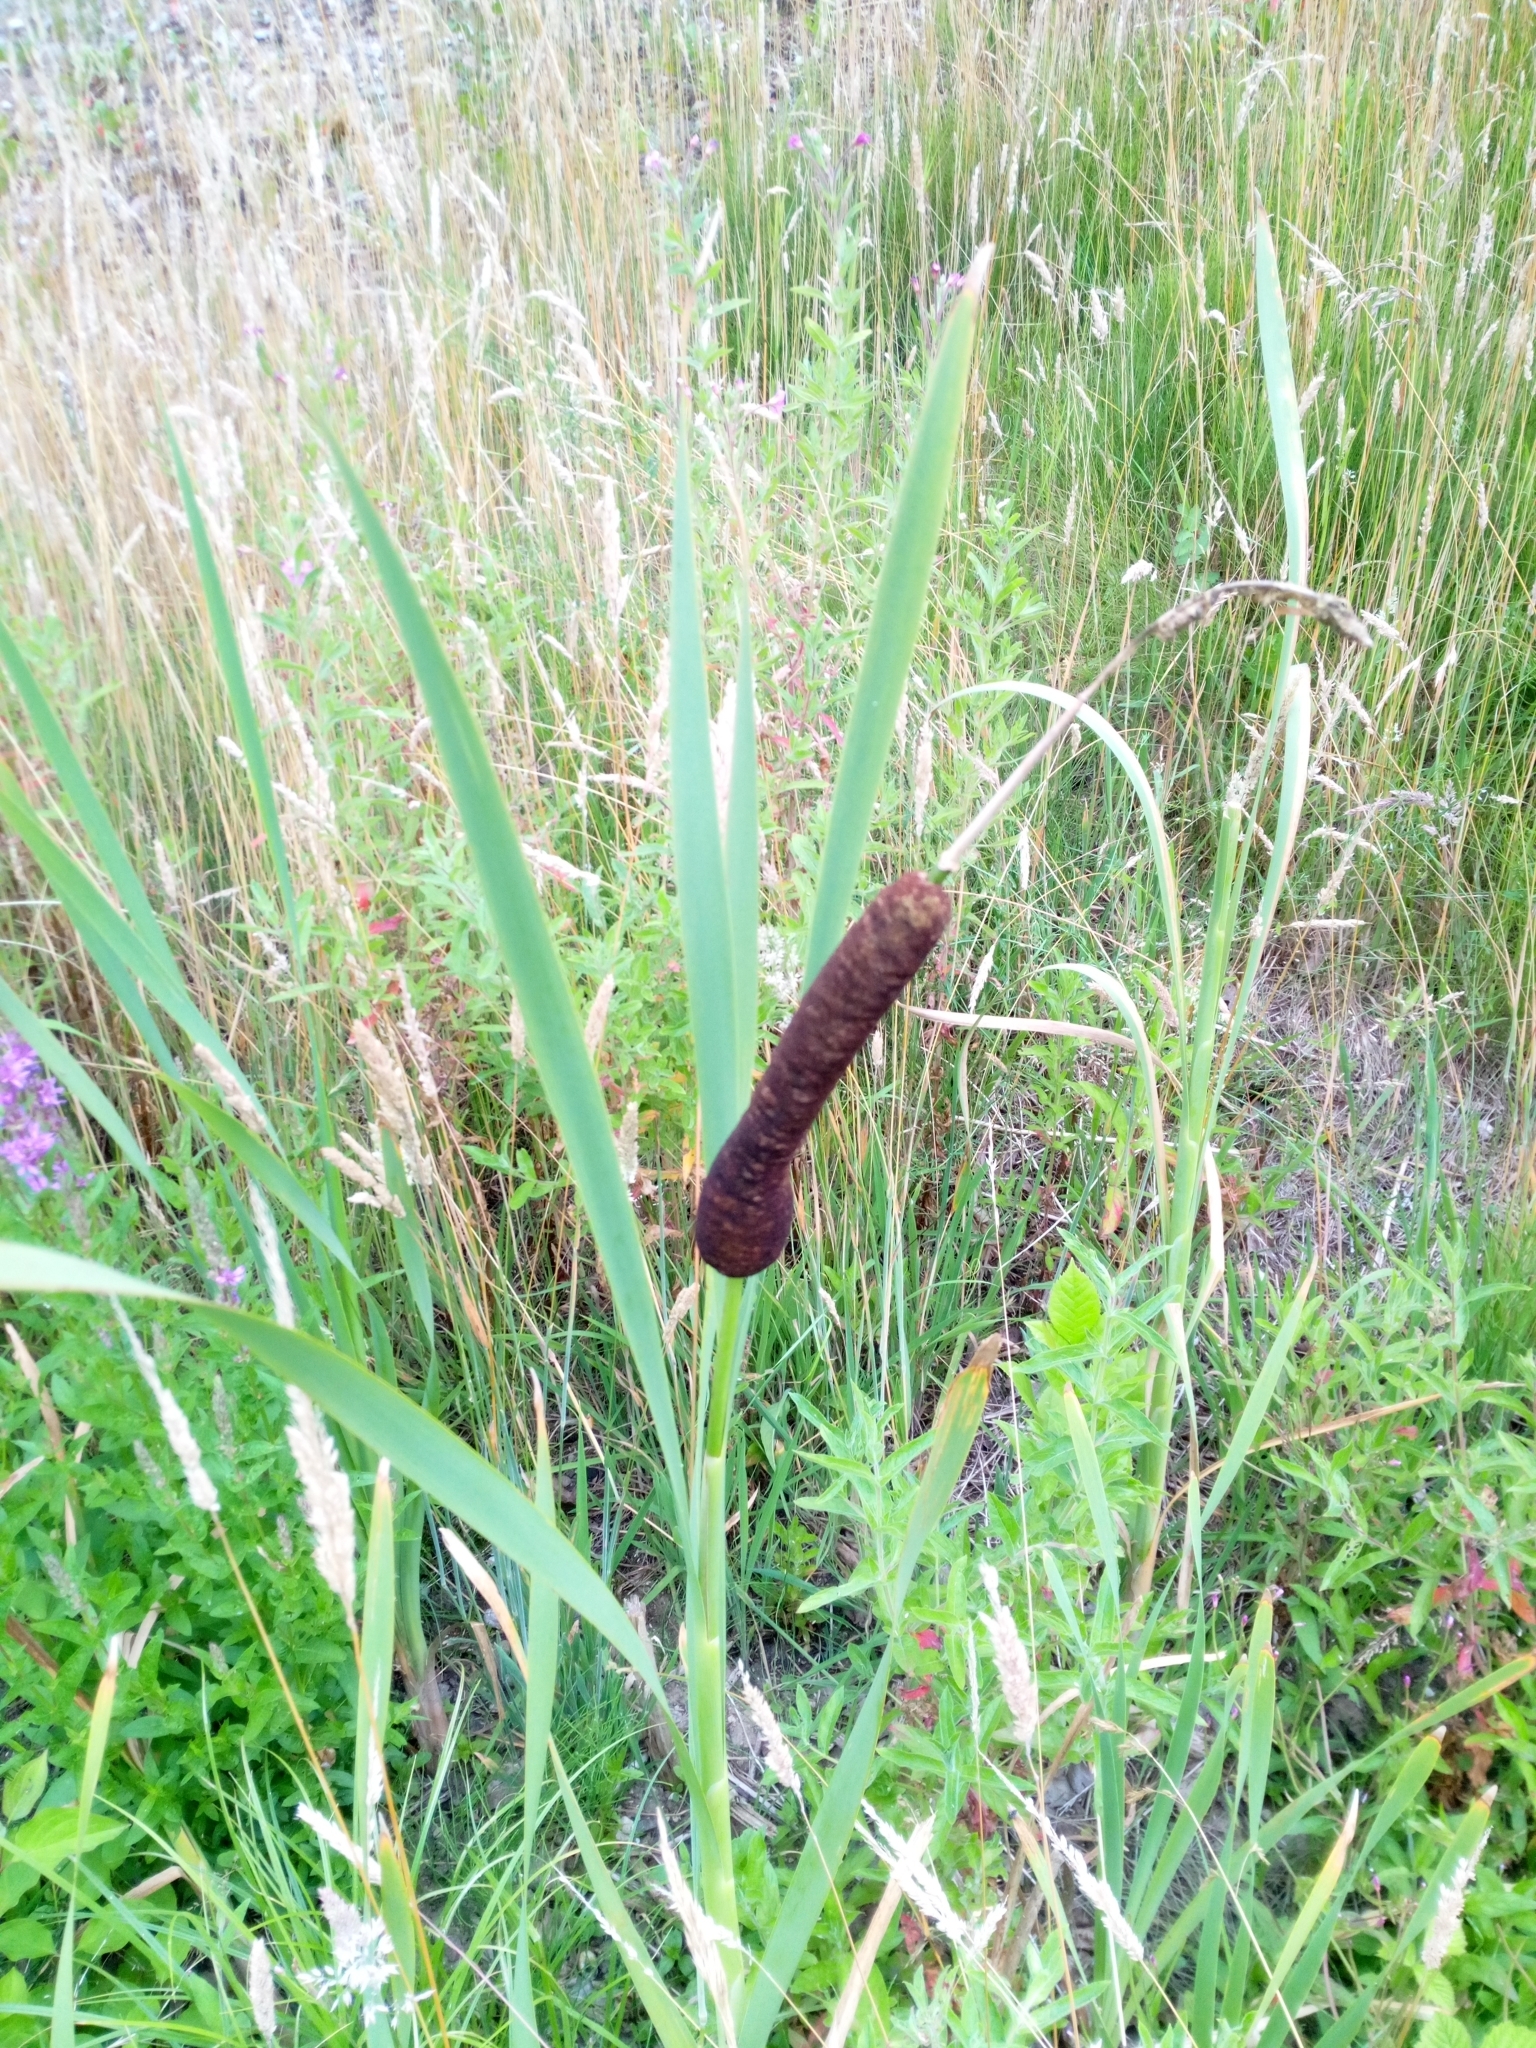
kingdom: Plantae
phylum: Tracheophyta
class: Liliopsida
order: Poales
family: Typhaceae
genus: Typha
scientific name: Typha latifolia
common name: Broadleaf cattail
